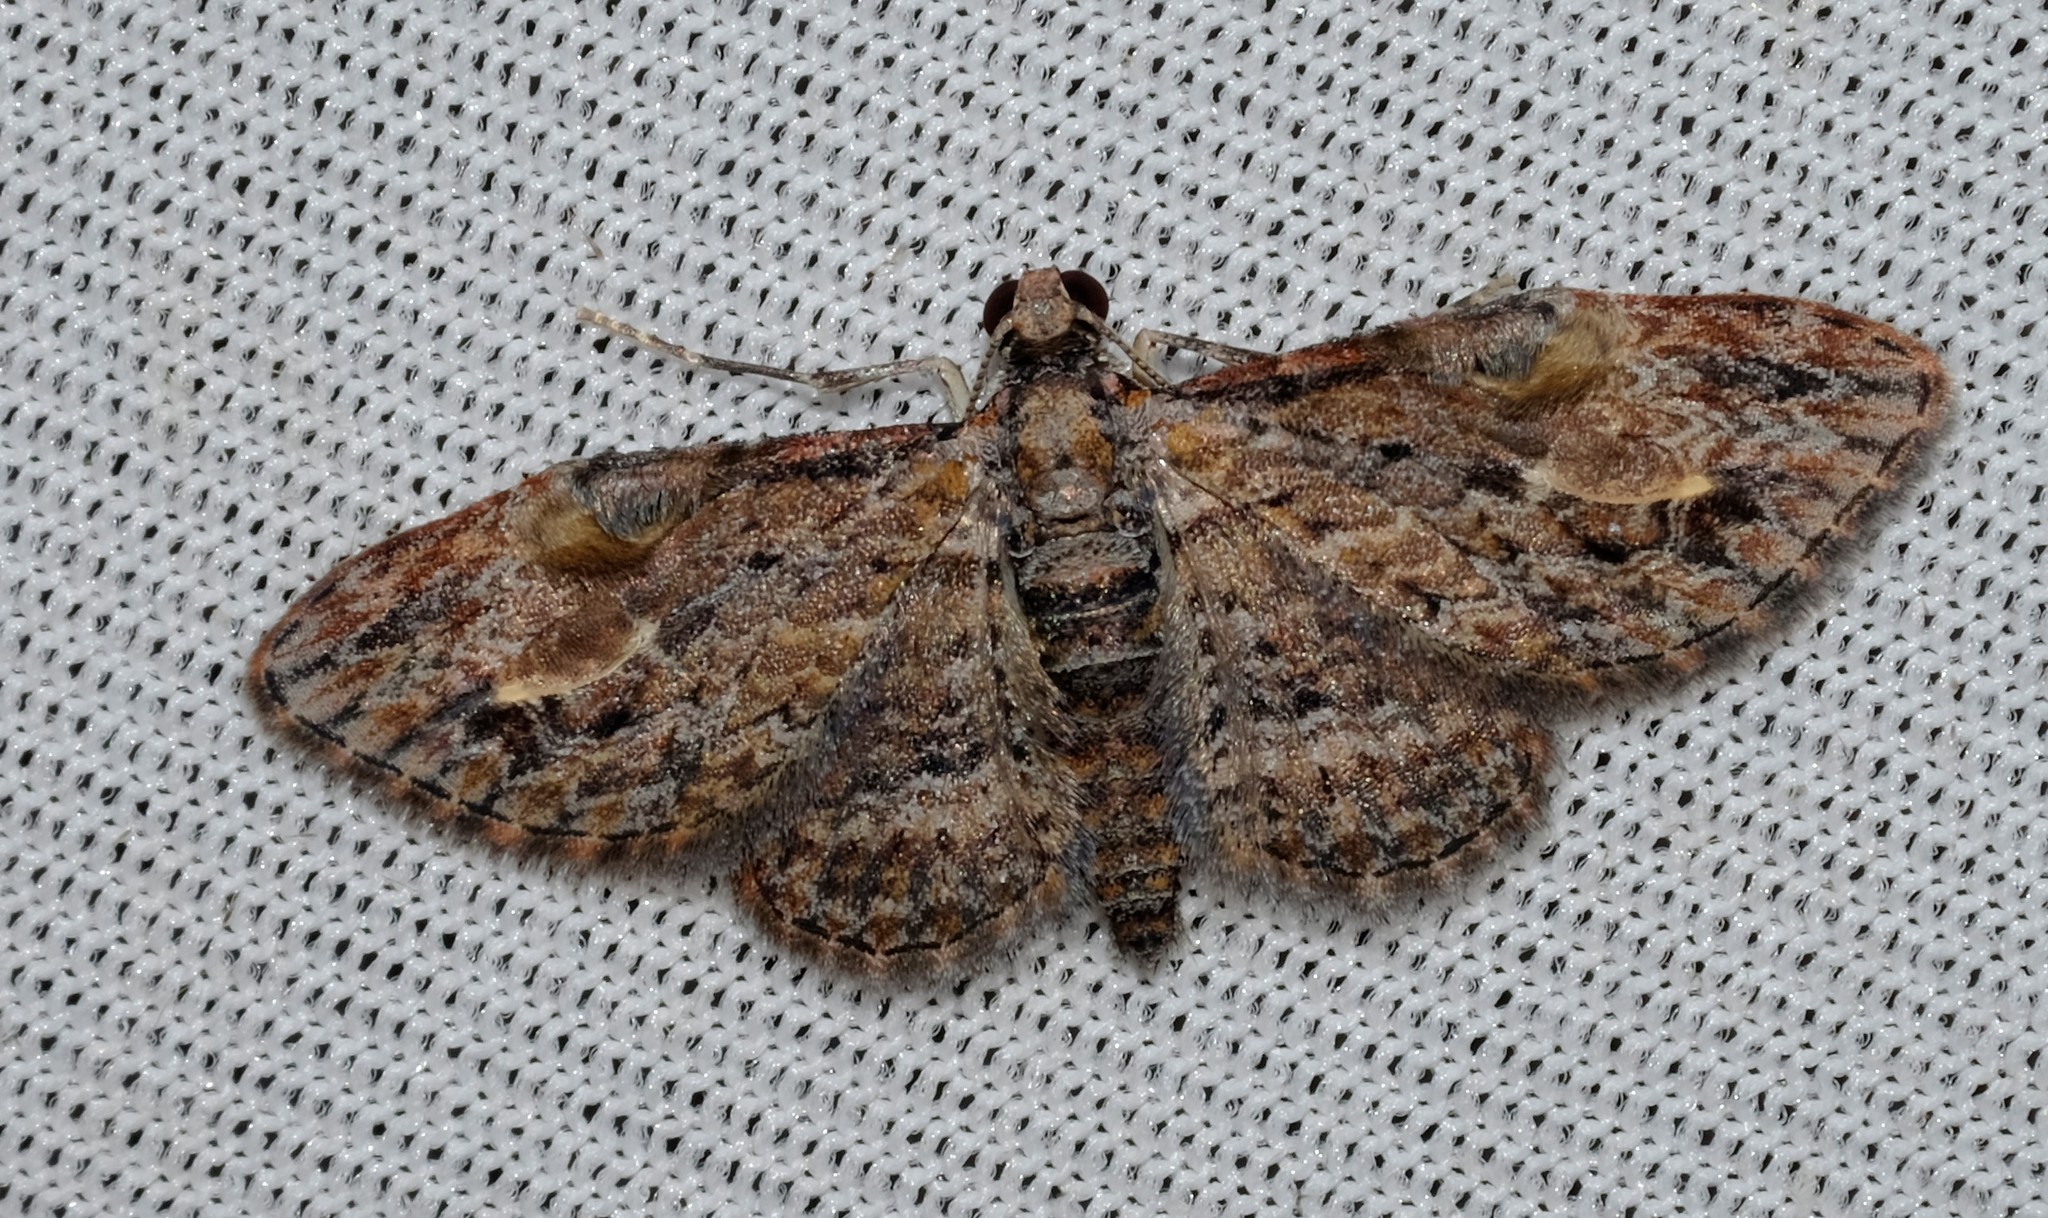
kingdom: Animalia
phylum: Arthropoda
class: Insecta
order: Lepidoptera
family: Geometridae
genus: Chloroclystis
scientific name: Chloroclystis insigillata
